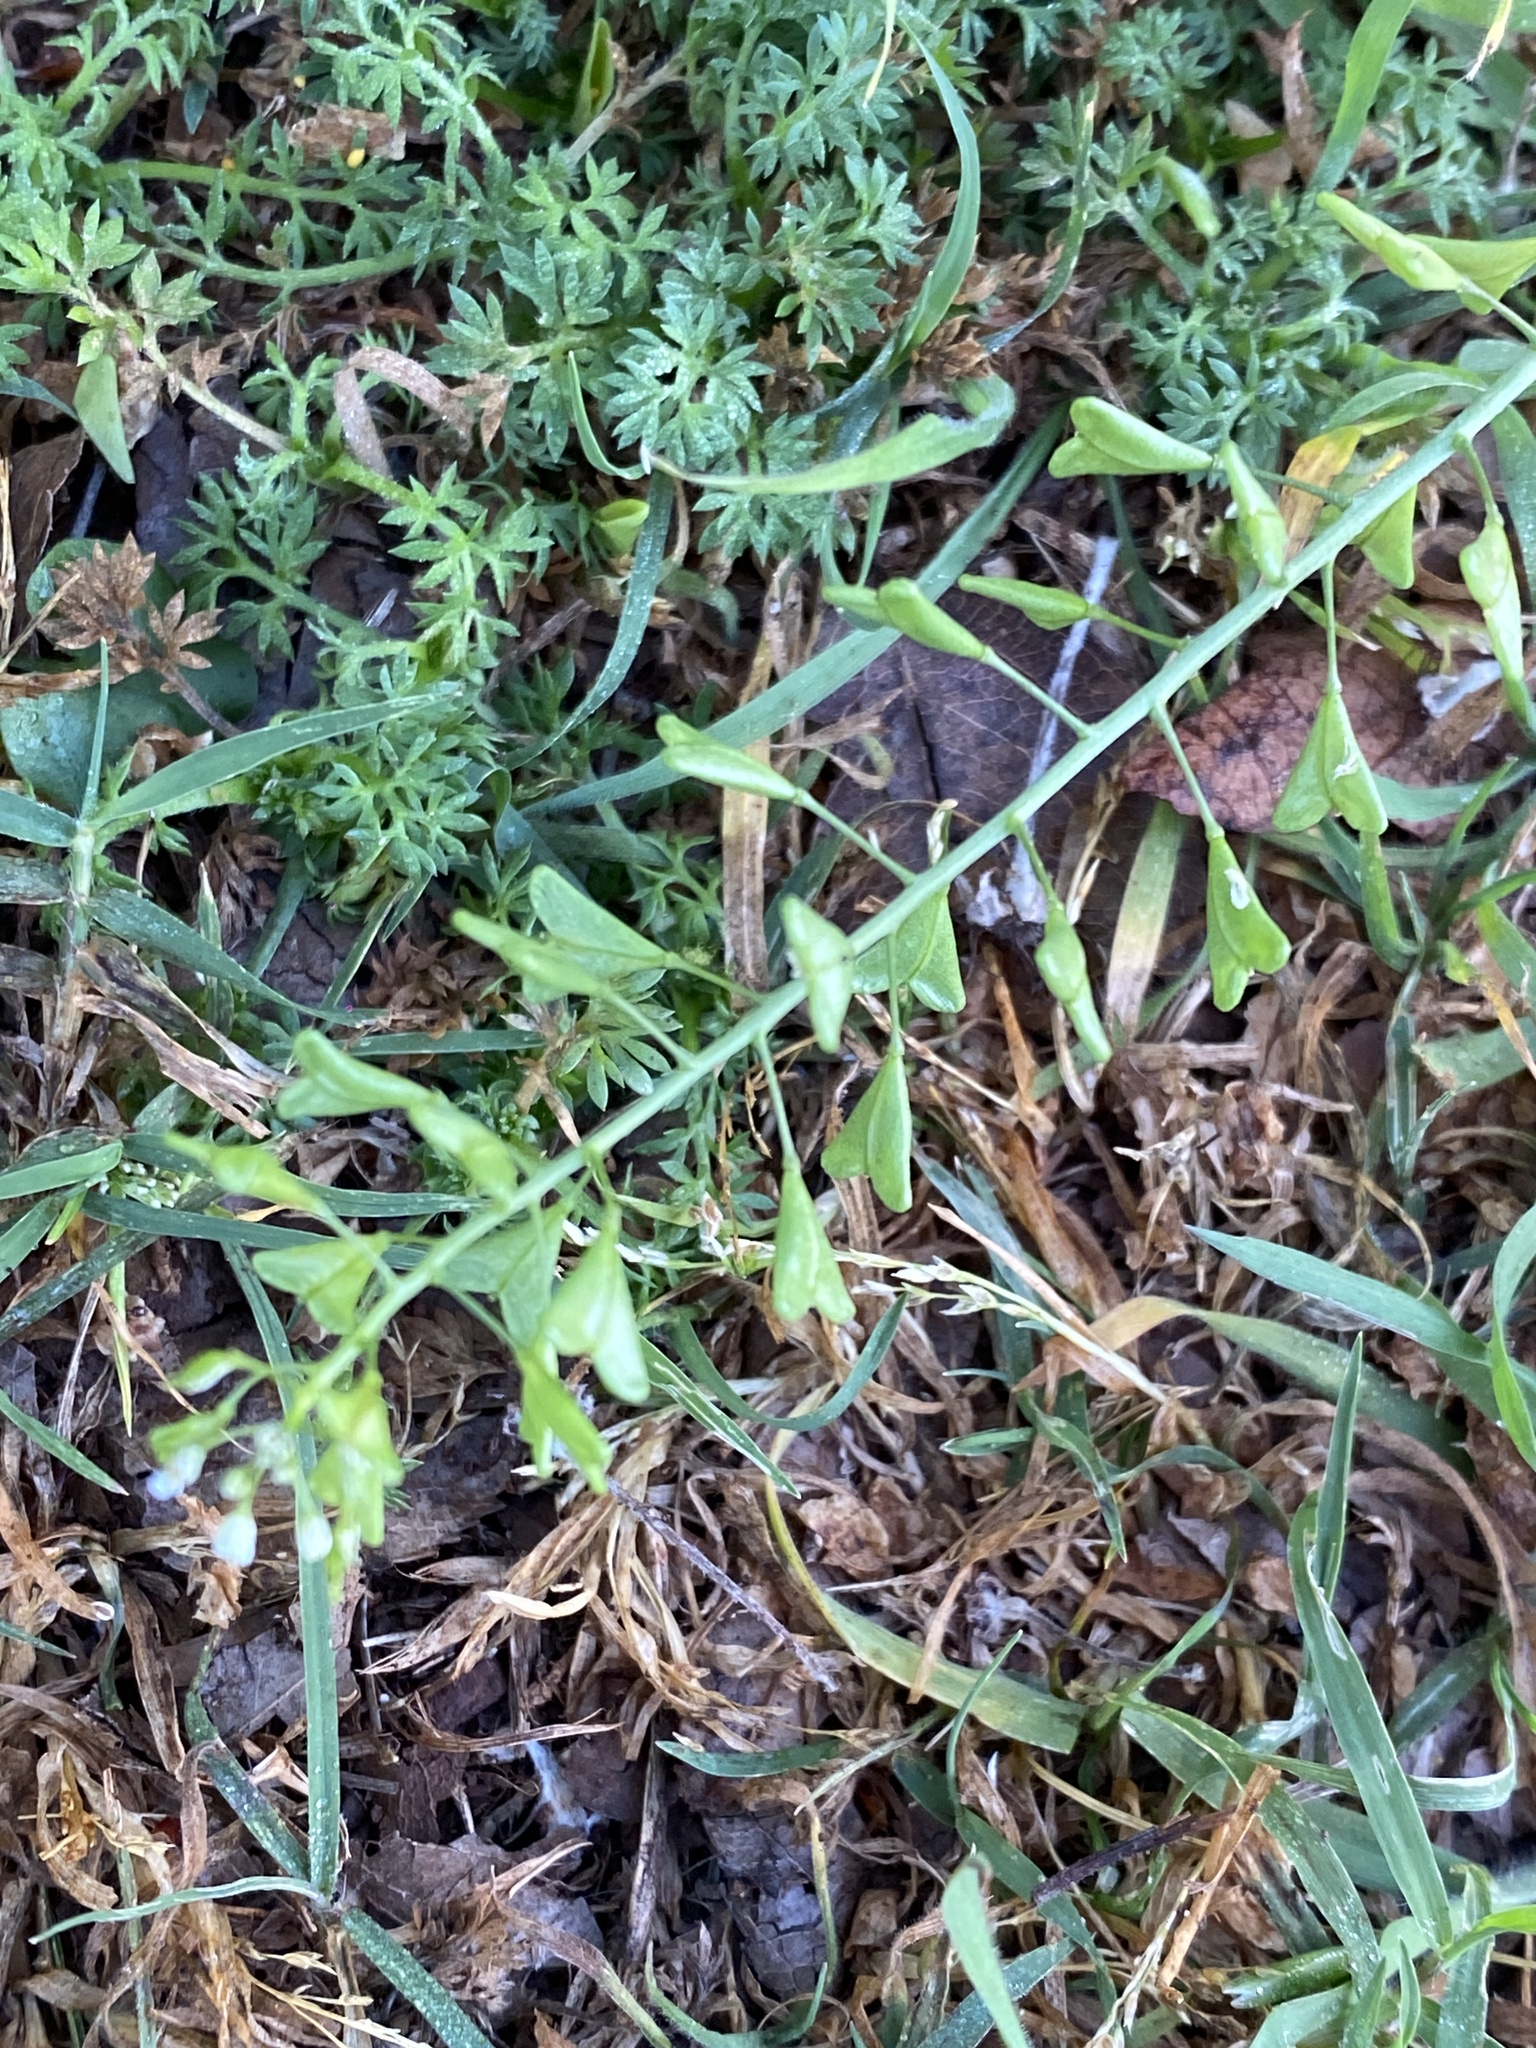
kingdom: Plantae
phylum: Tracheophyta
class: Magnoliopsida
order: Brassicales
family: Brassicaceae
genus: Capsella
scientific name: Capsella bursa-pastoris
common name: Shepherd's purse
